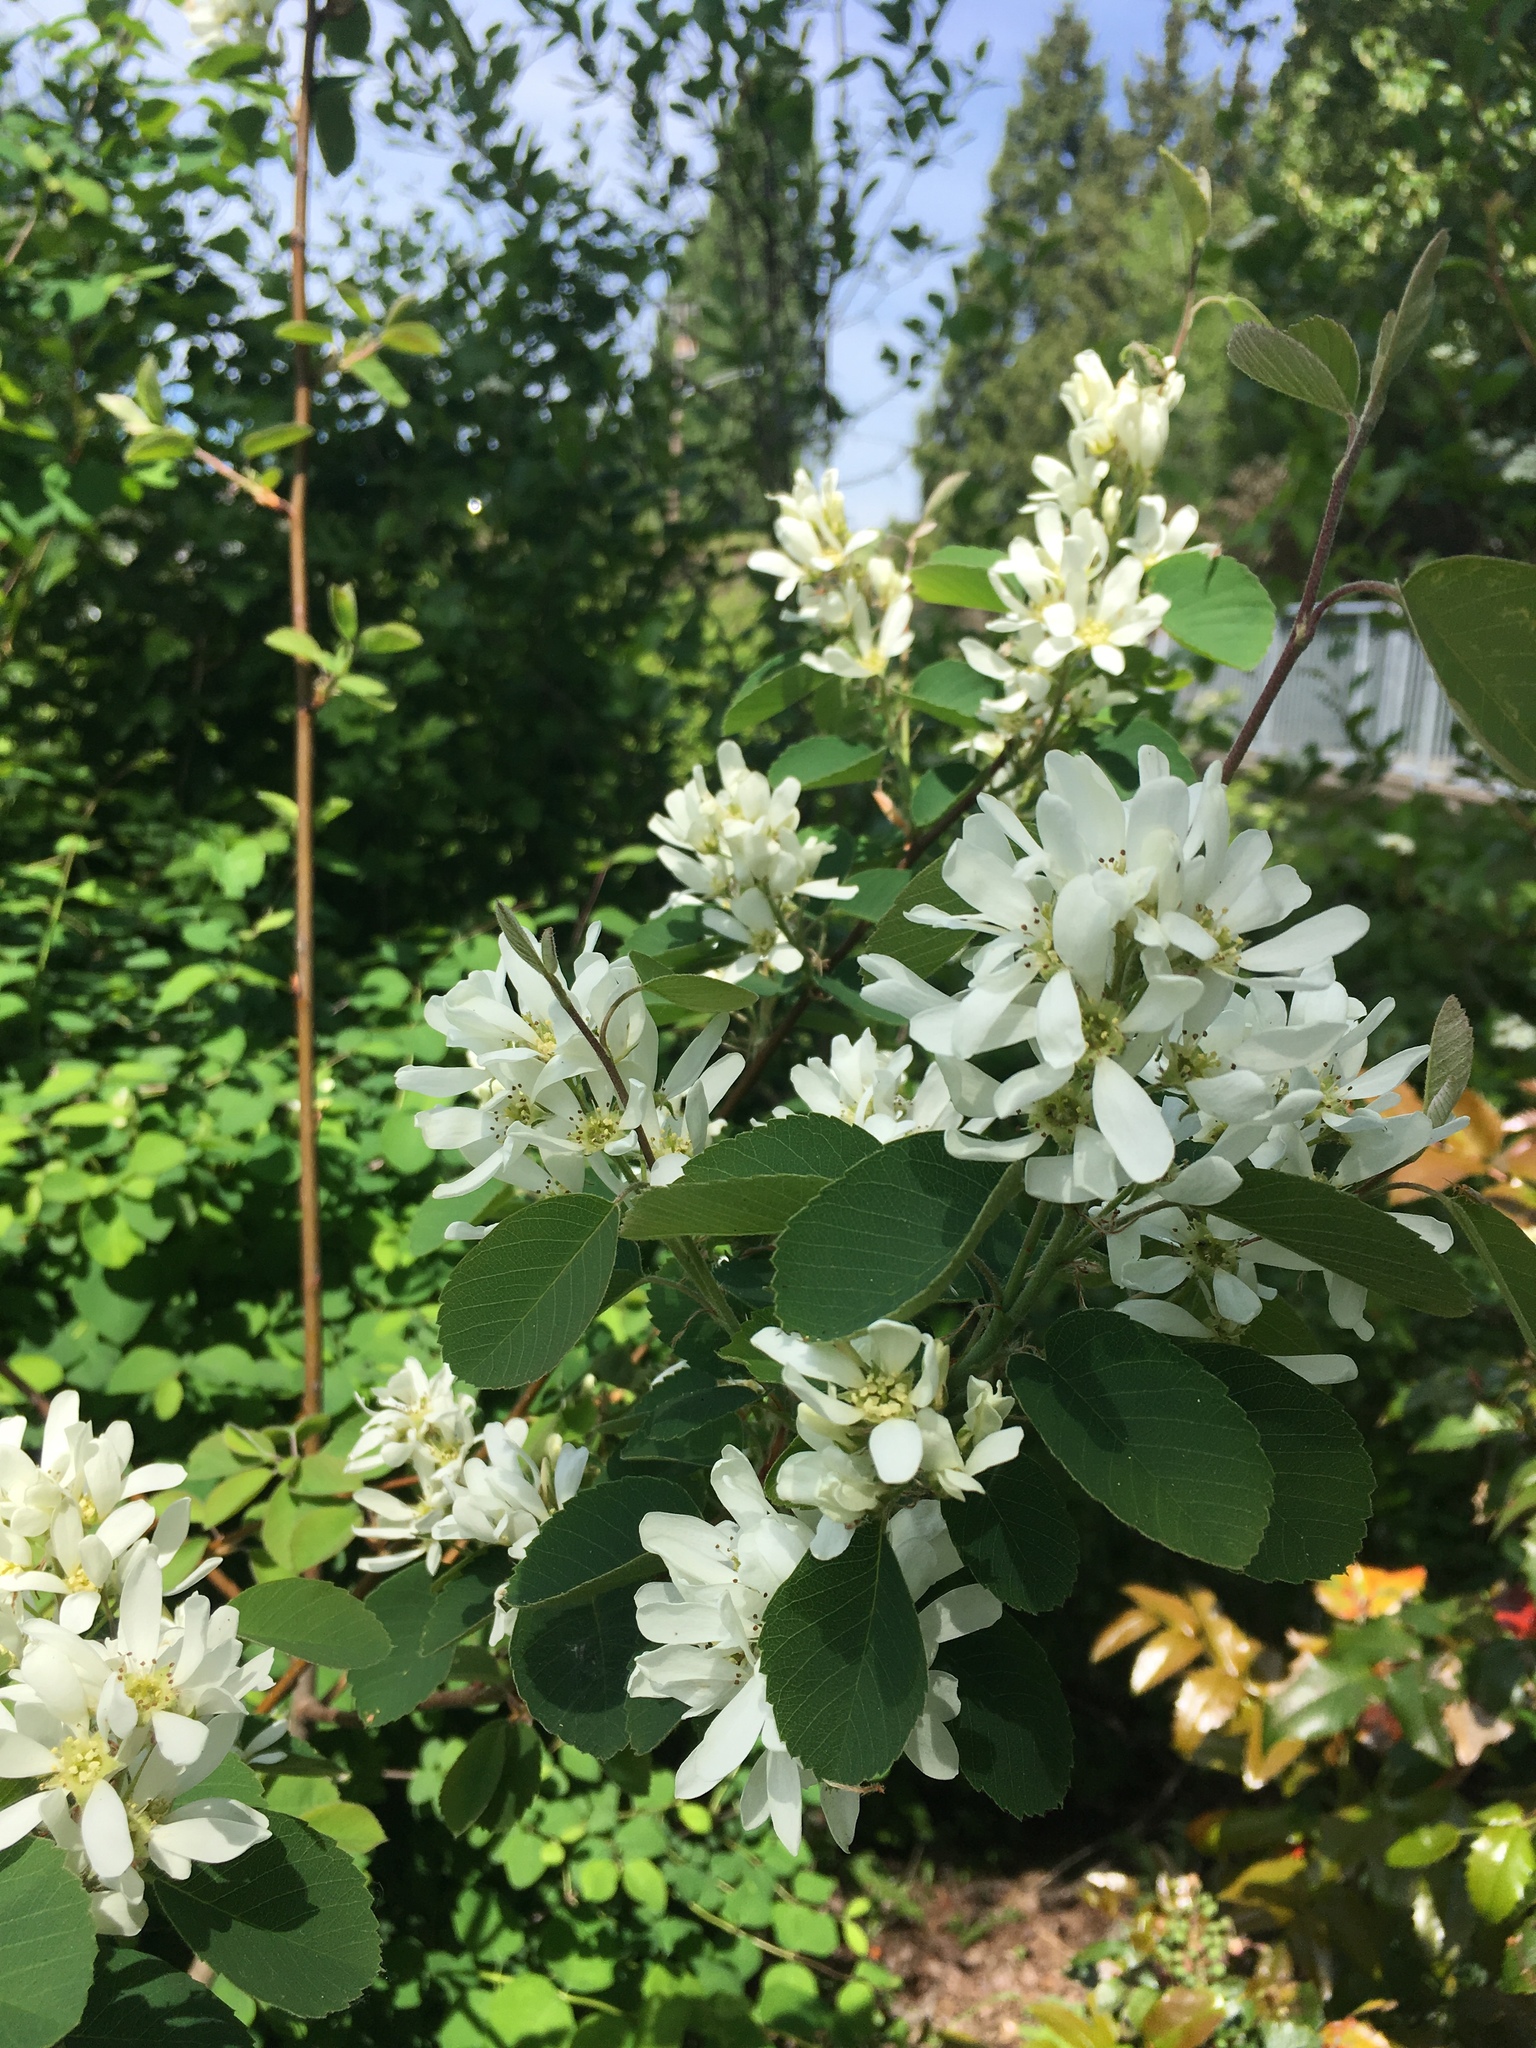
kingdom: Plantae
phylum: Tracheophyta
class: Magnoliopsida
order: Rosales
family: Rosaceae
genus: Amelanchier
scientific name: Amelanchier alnifolia
